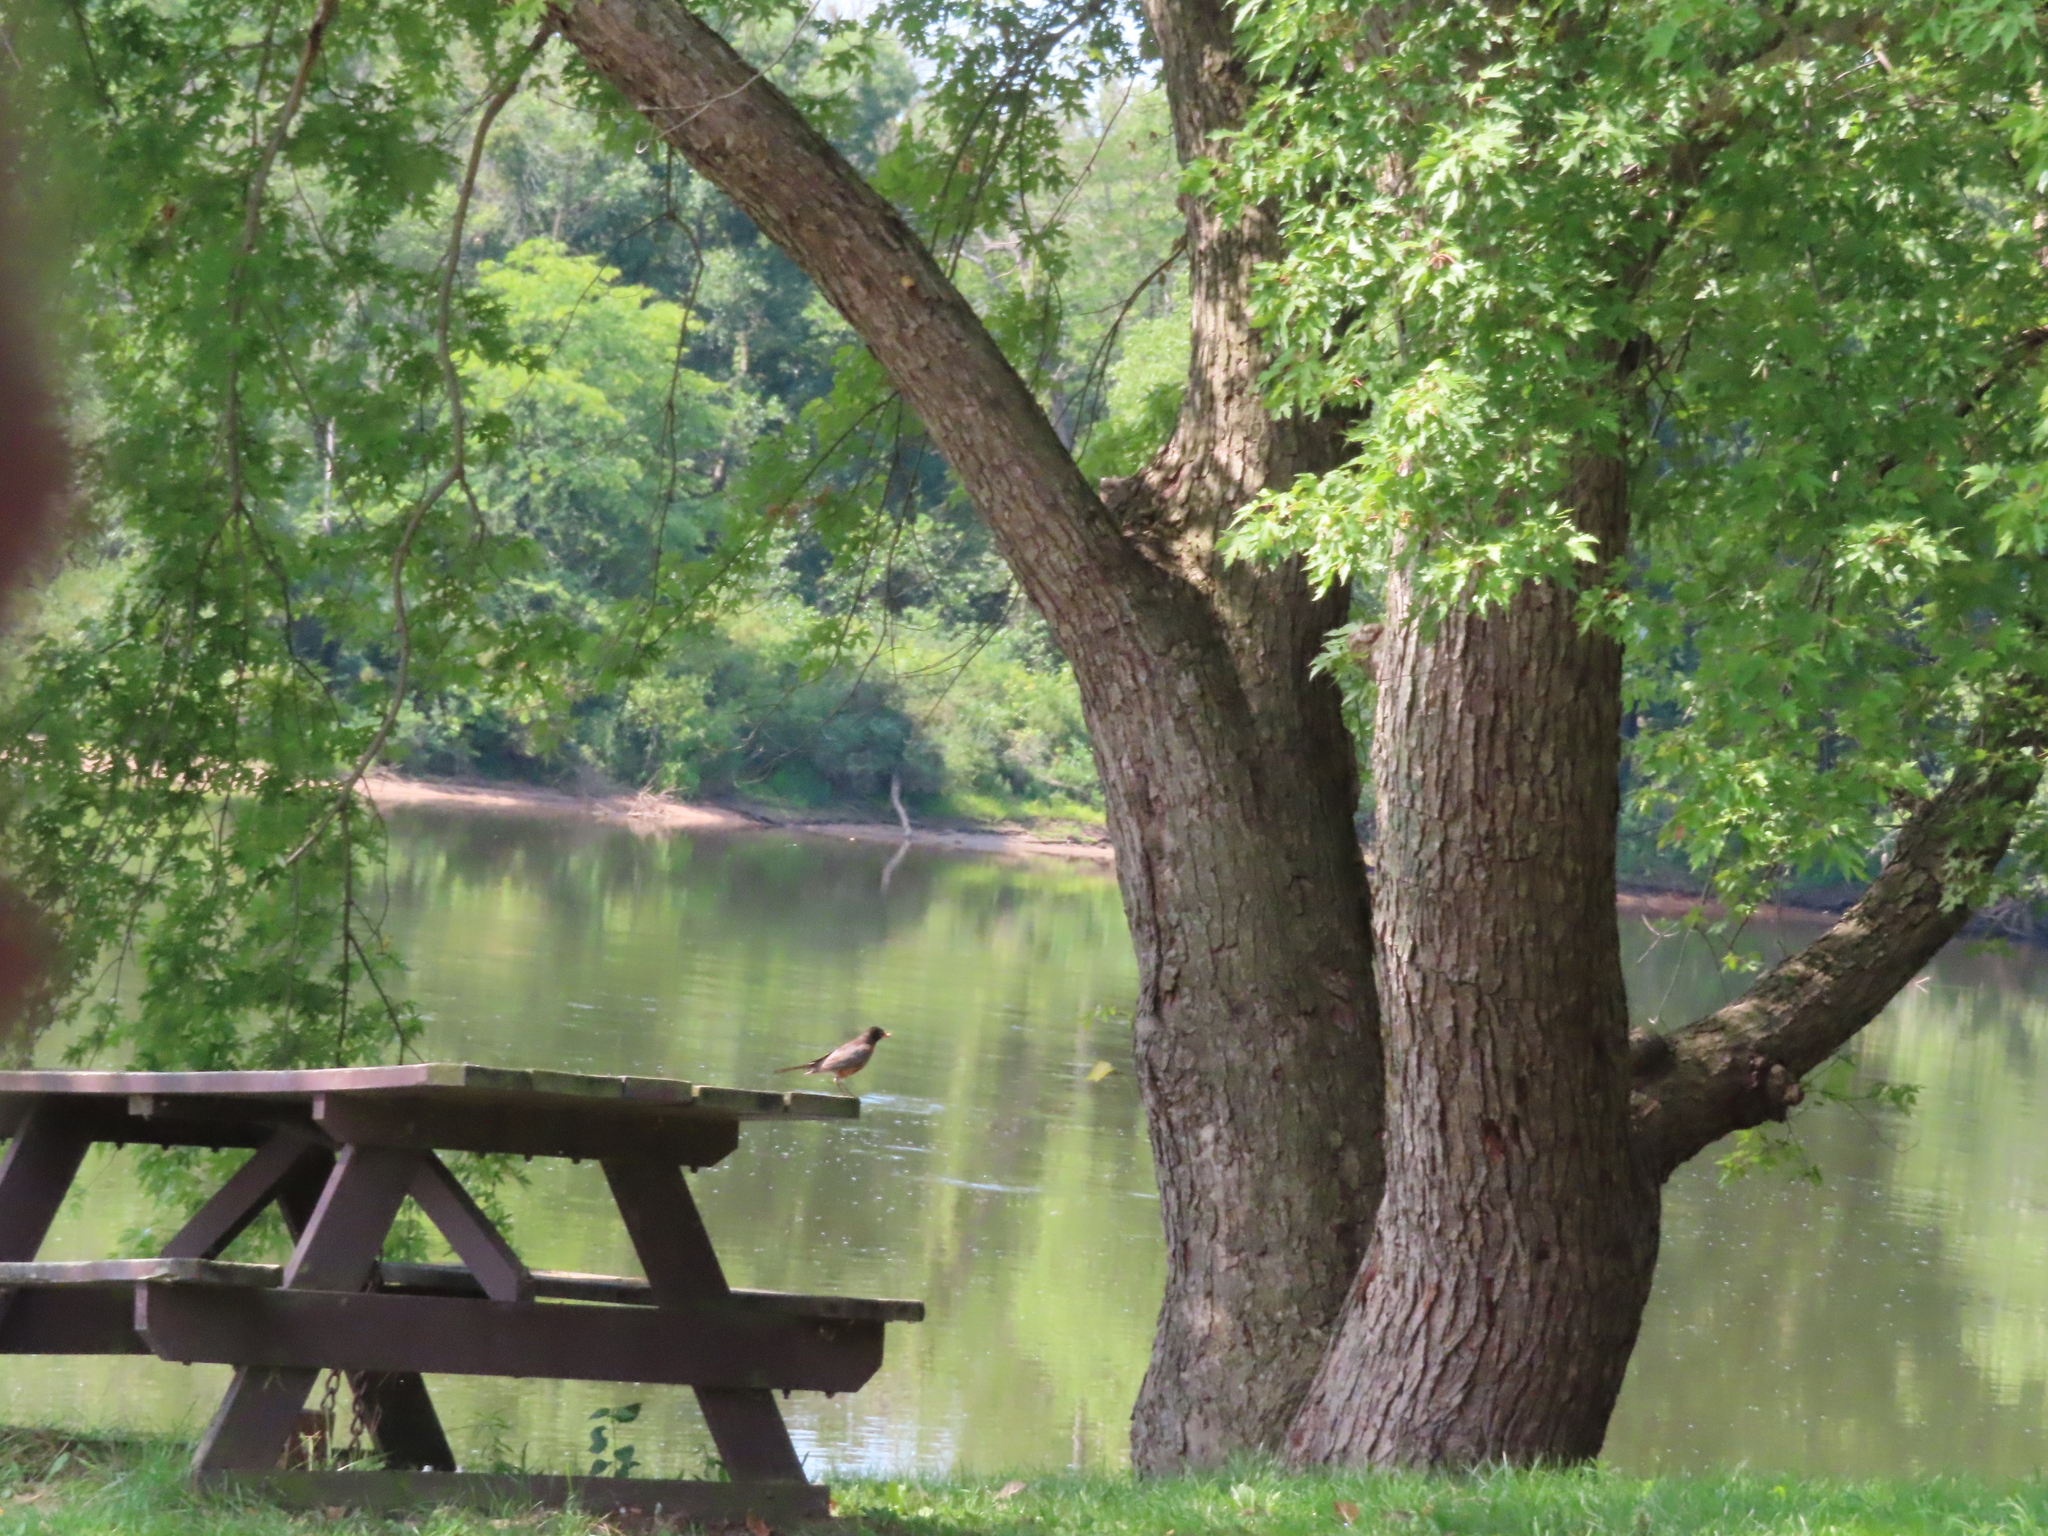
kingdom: Animalia
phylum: Chordata
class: Aves
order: Passeriformes
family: Turdidae
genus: Turdus
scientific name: Turdus migratorius
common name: American robin
